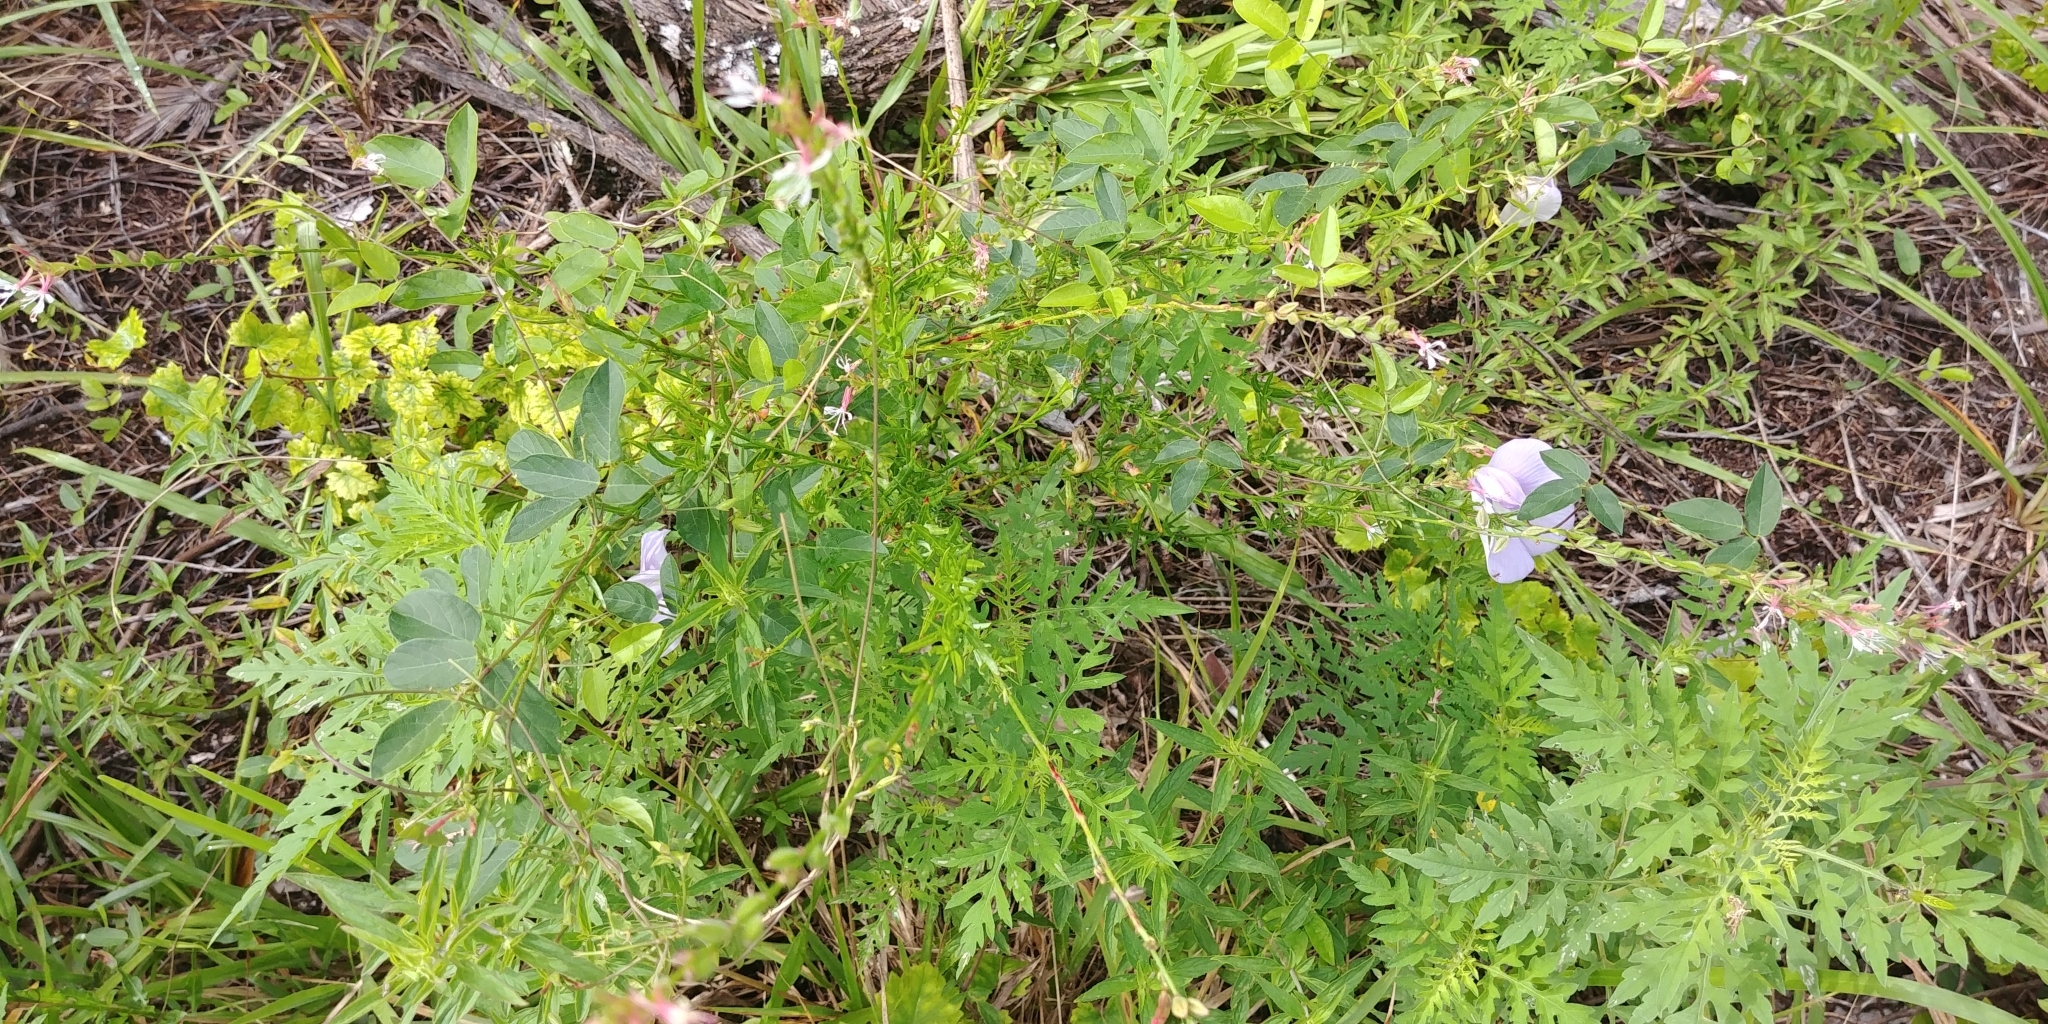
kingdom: Plantae
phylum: Tracheophyta
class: Magnoliopsida
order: Fabales
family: Fabaceae
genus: Centrosema
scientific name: Centrosema virginianum
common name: Butterfly-pea
